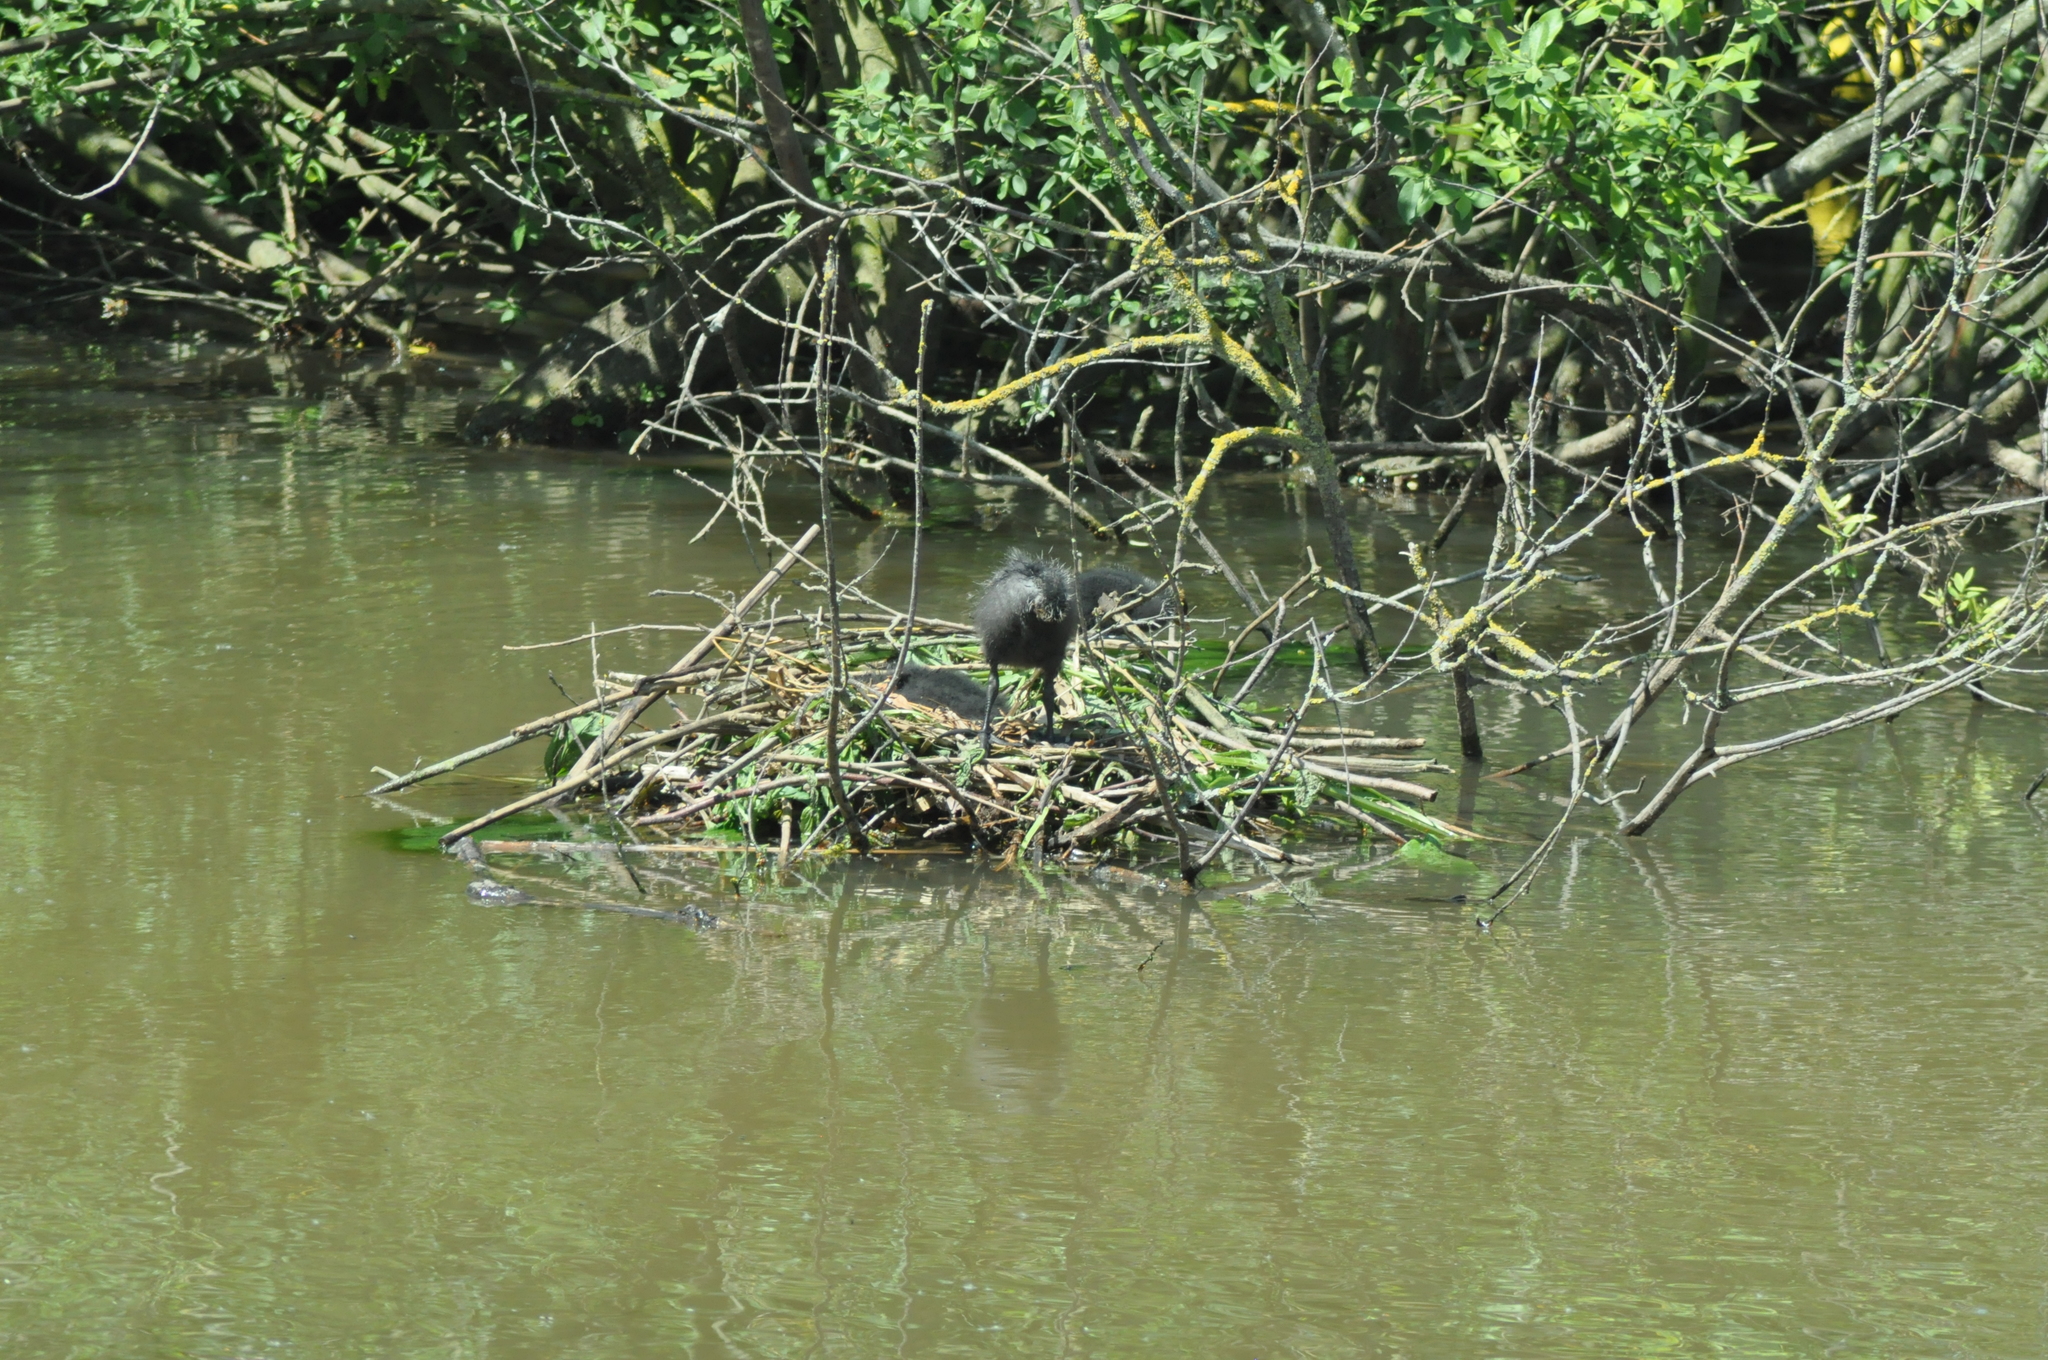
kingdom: Animalia
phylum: Chordata
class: Aves
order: Gruiformes
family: Rallidae
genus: Fulica
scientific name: Fulica atra
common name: Eurasian coot
